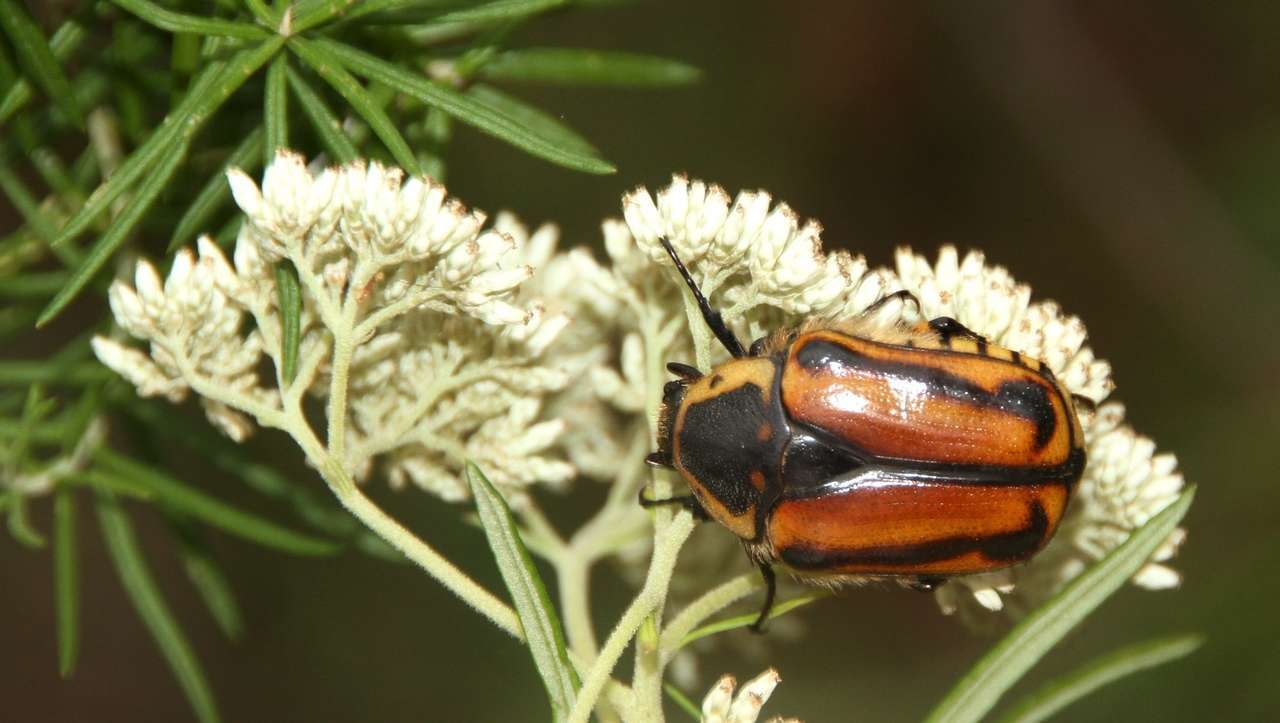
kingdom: Animalia
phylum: Arthropoda
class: Insecta
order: Coleoptera
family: Scarabaeidae
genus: Chondropyga
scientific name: Chondropyga gulosa
